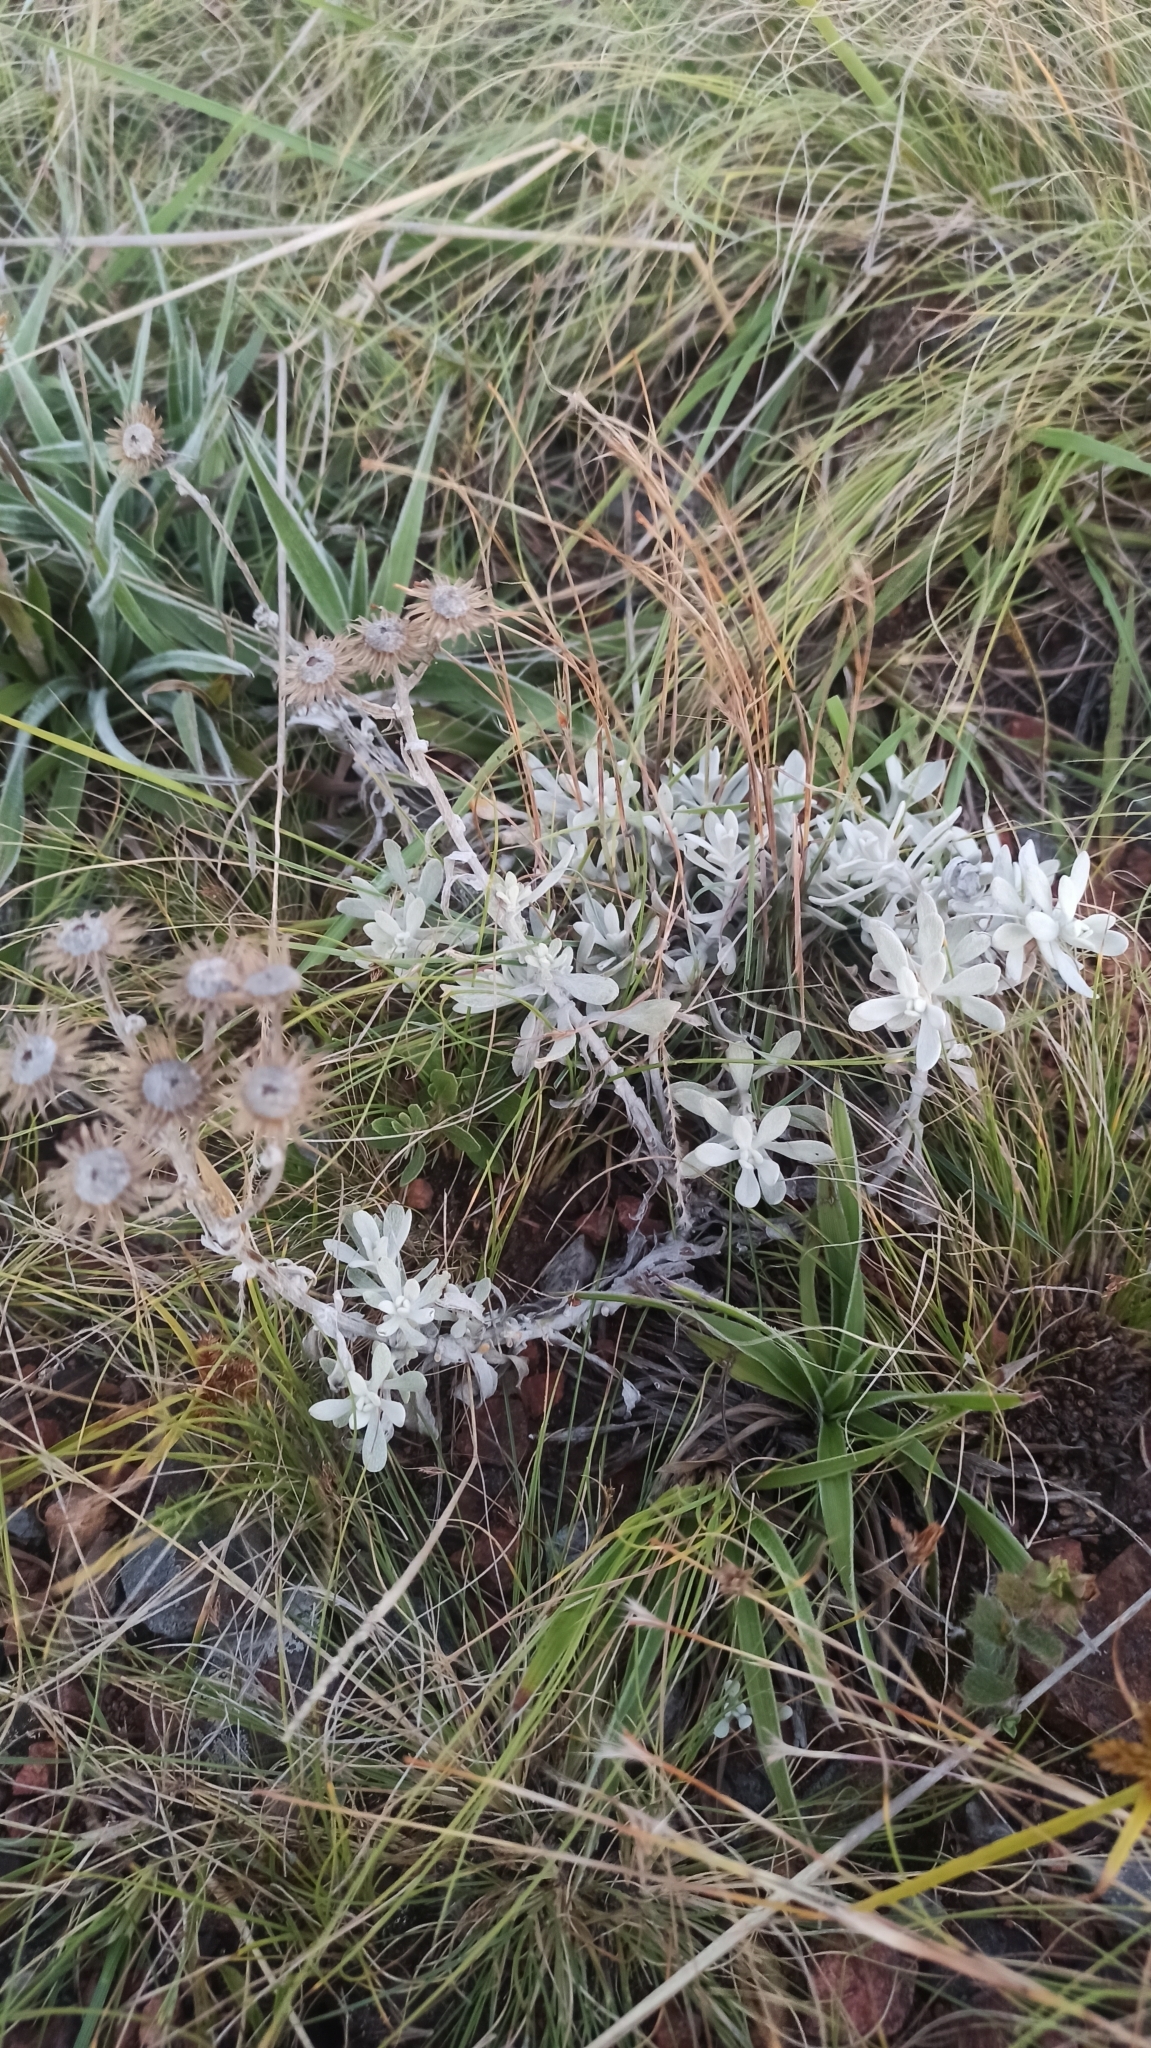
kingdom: Plantae
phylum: Tracheophyta
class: Magnoliopsida
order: Asterales
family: Asteraceae
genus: Senecio
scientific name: Senecio ostenii
